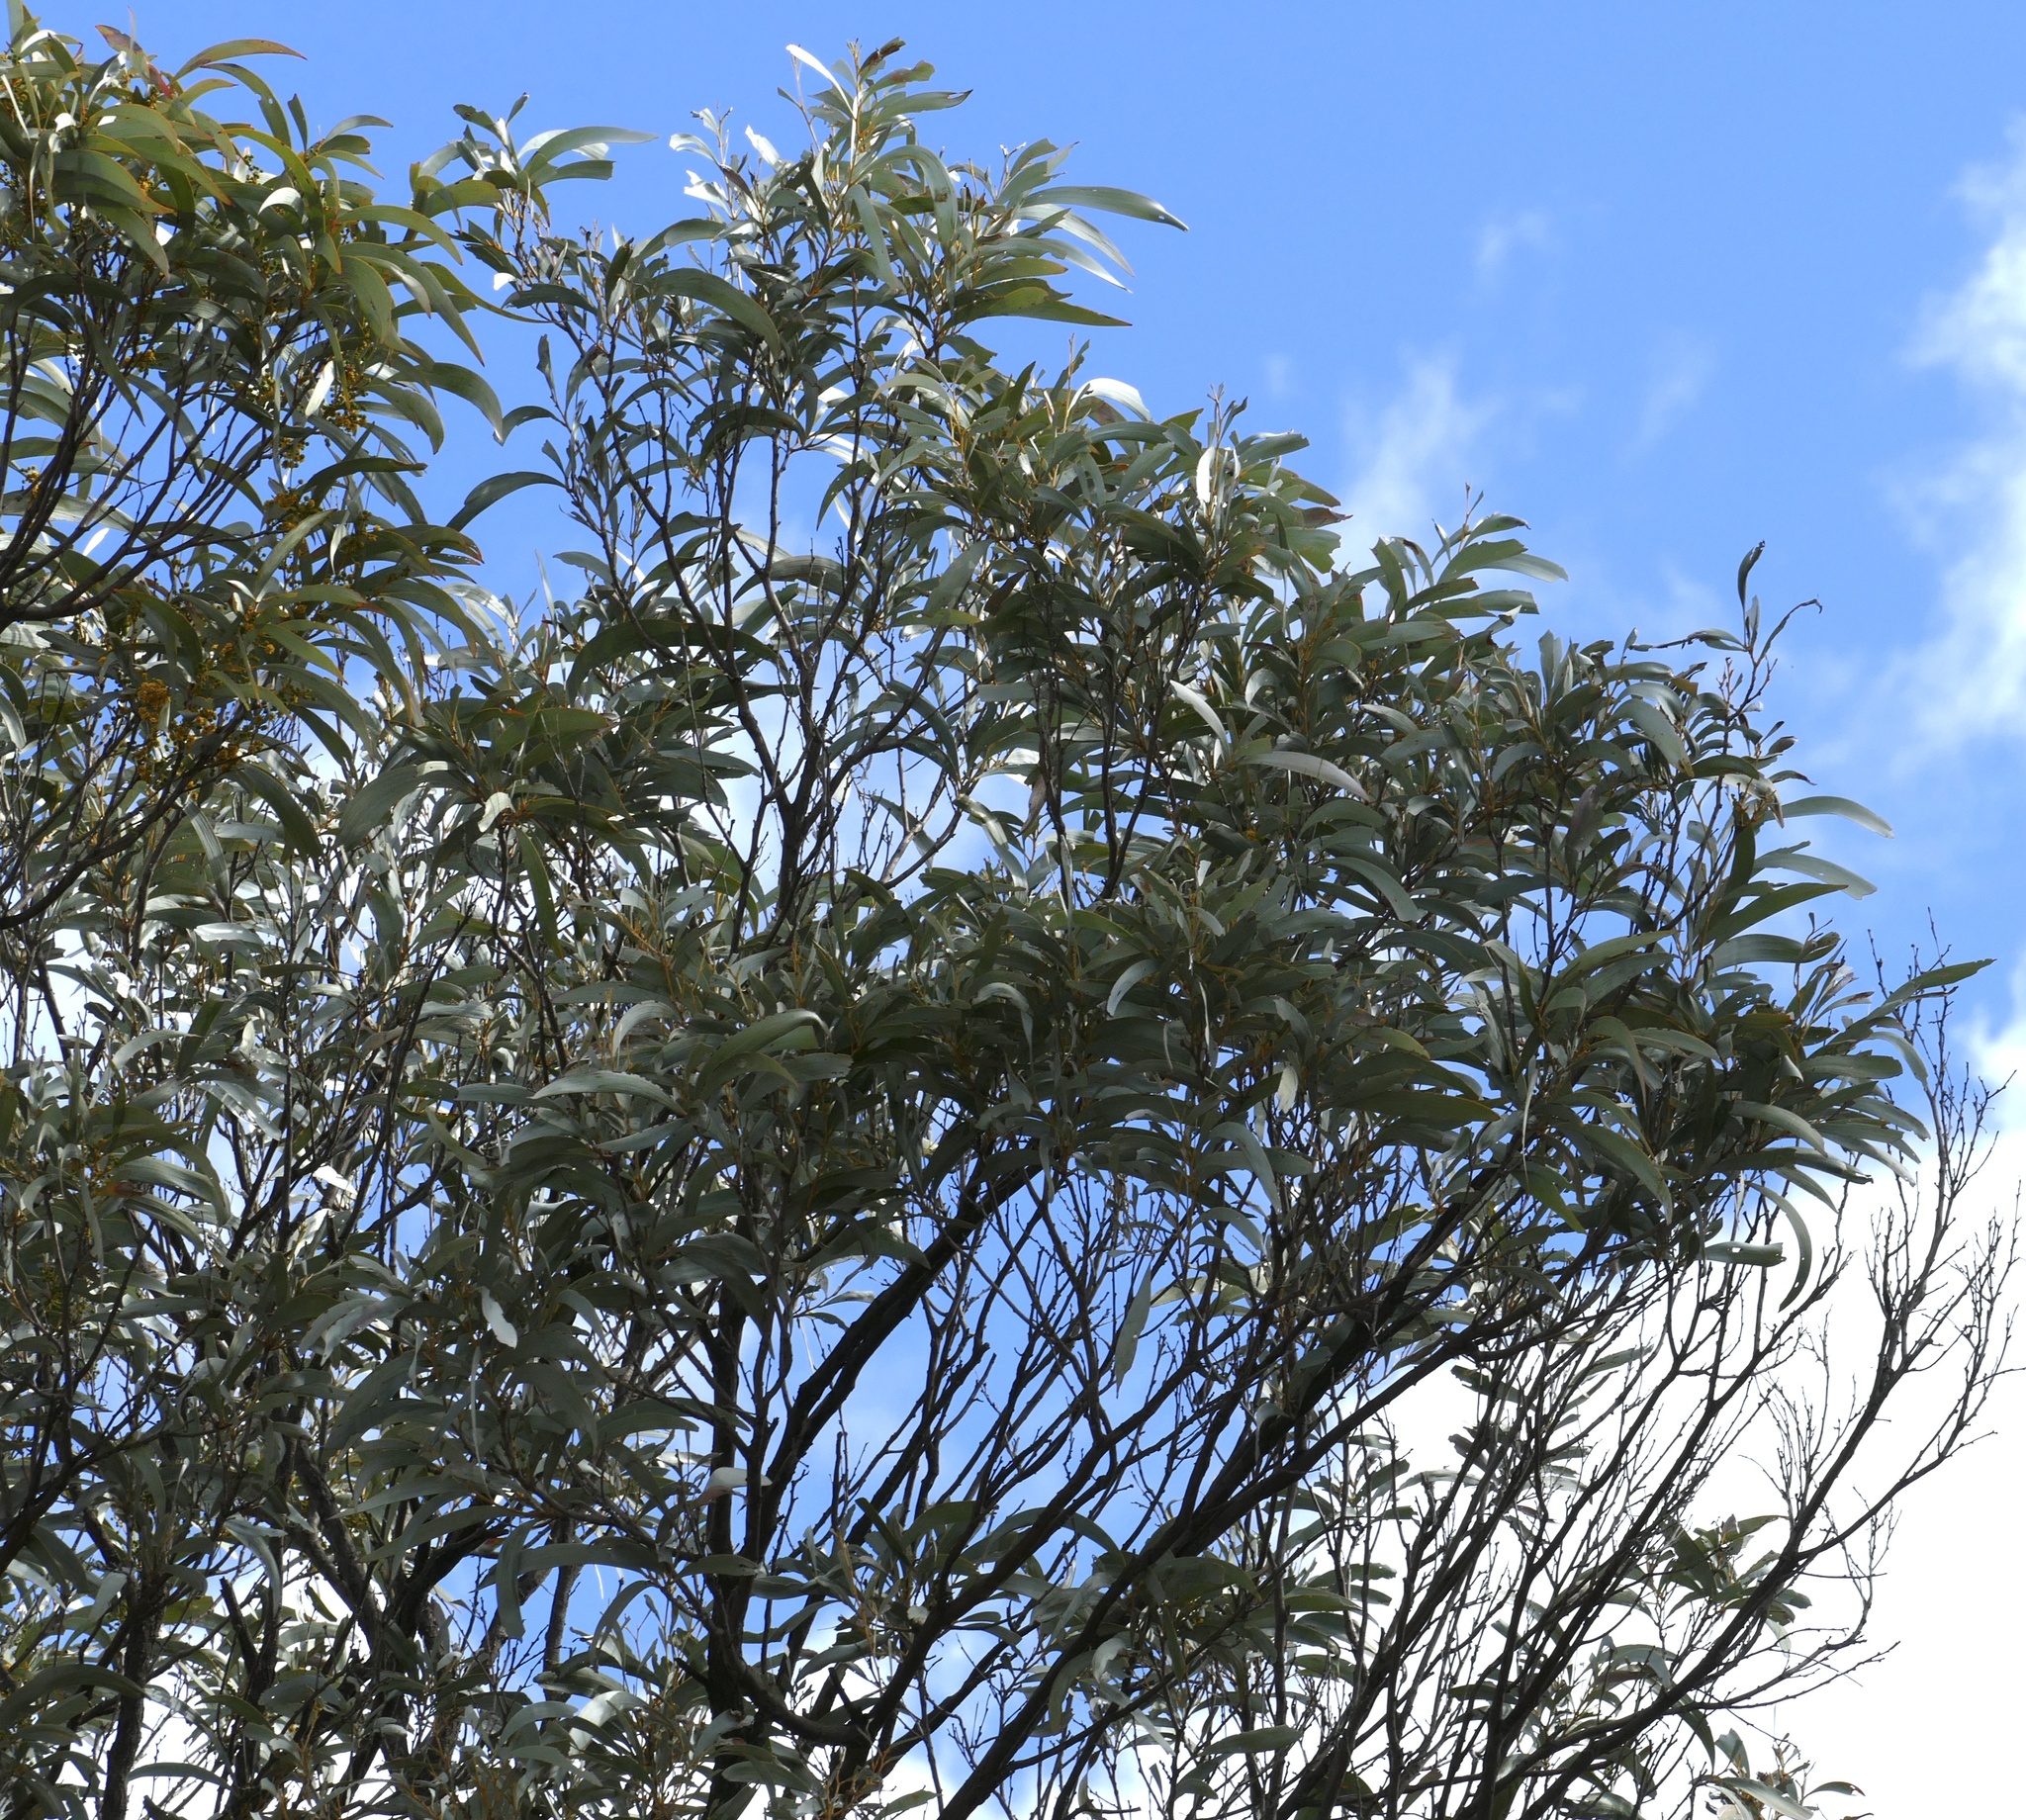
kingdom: Plantae
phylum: Tracheophyta
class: Magnoliopsida
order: Fabales
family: Fabaceae
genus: Acacia
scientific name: Acacia harpophylla
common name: Brigalow
